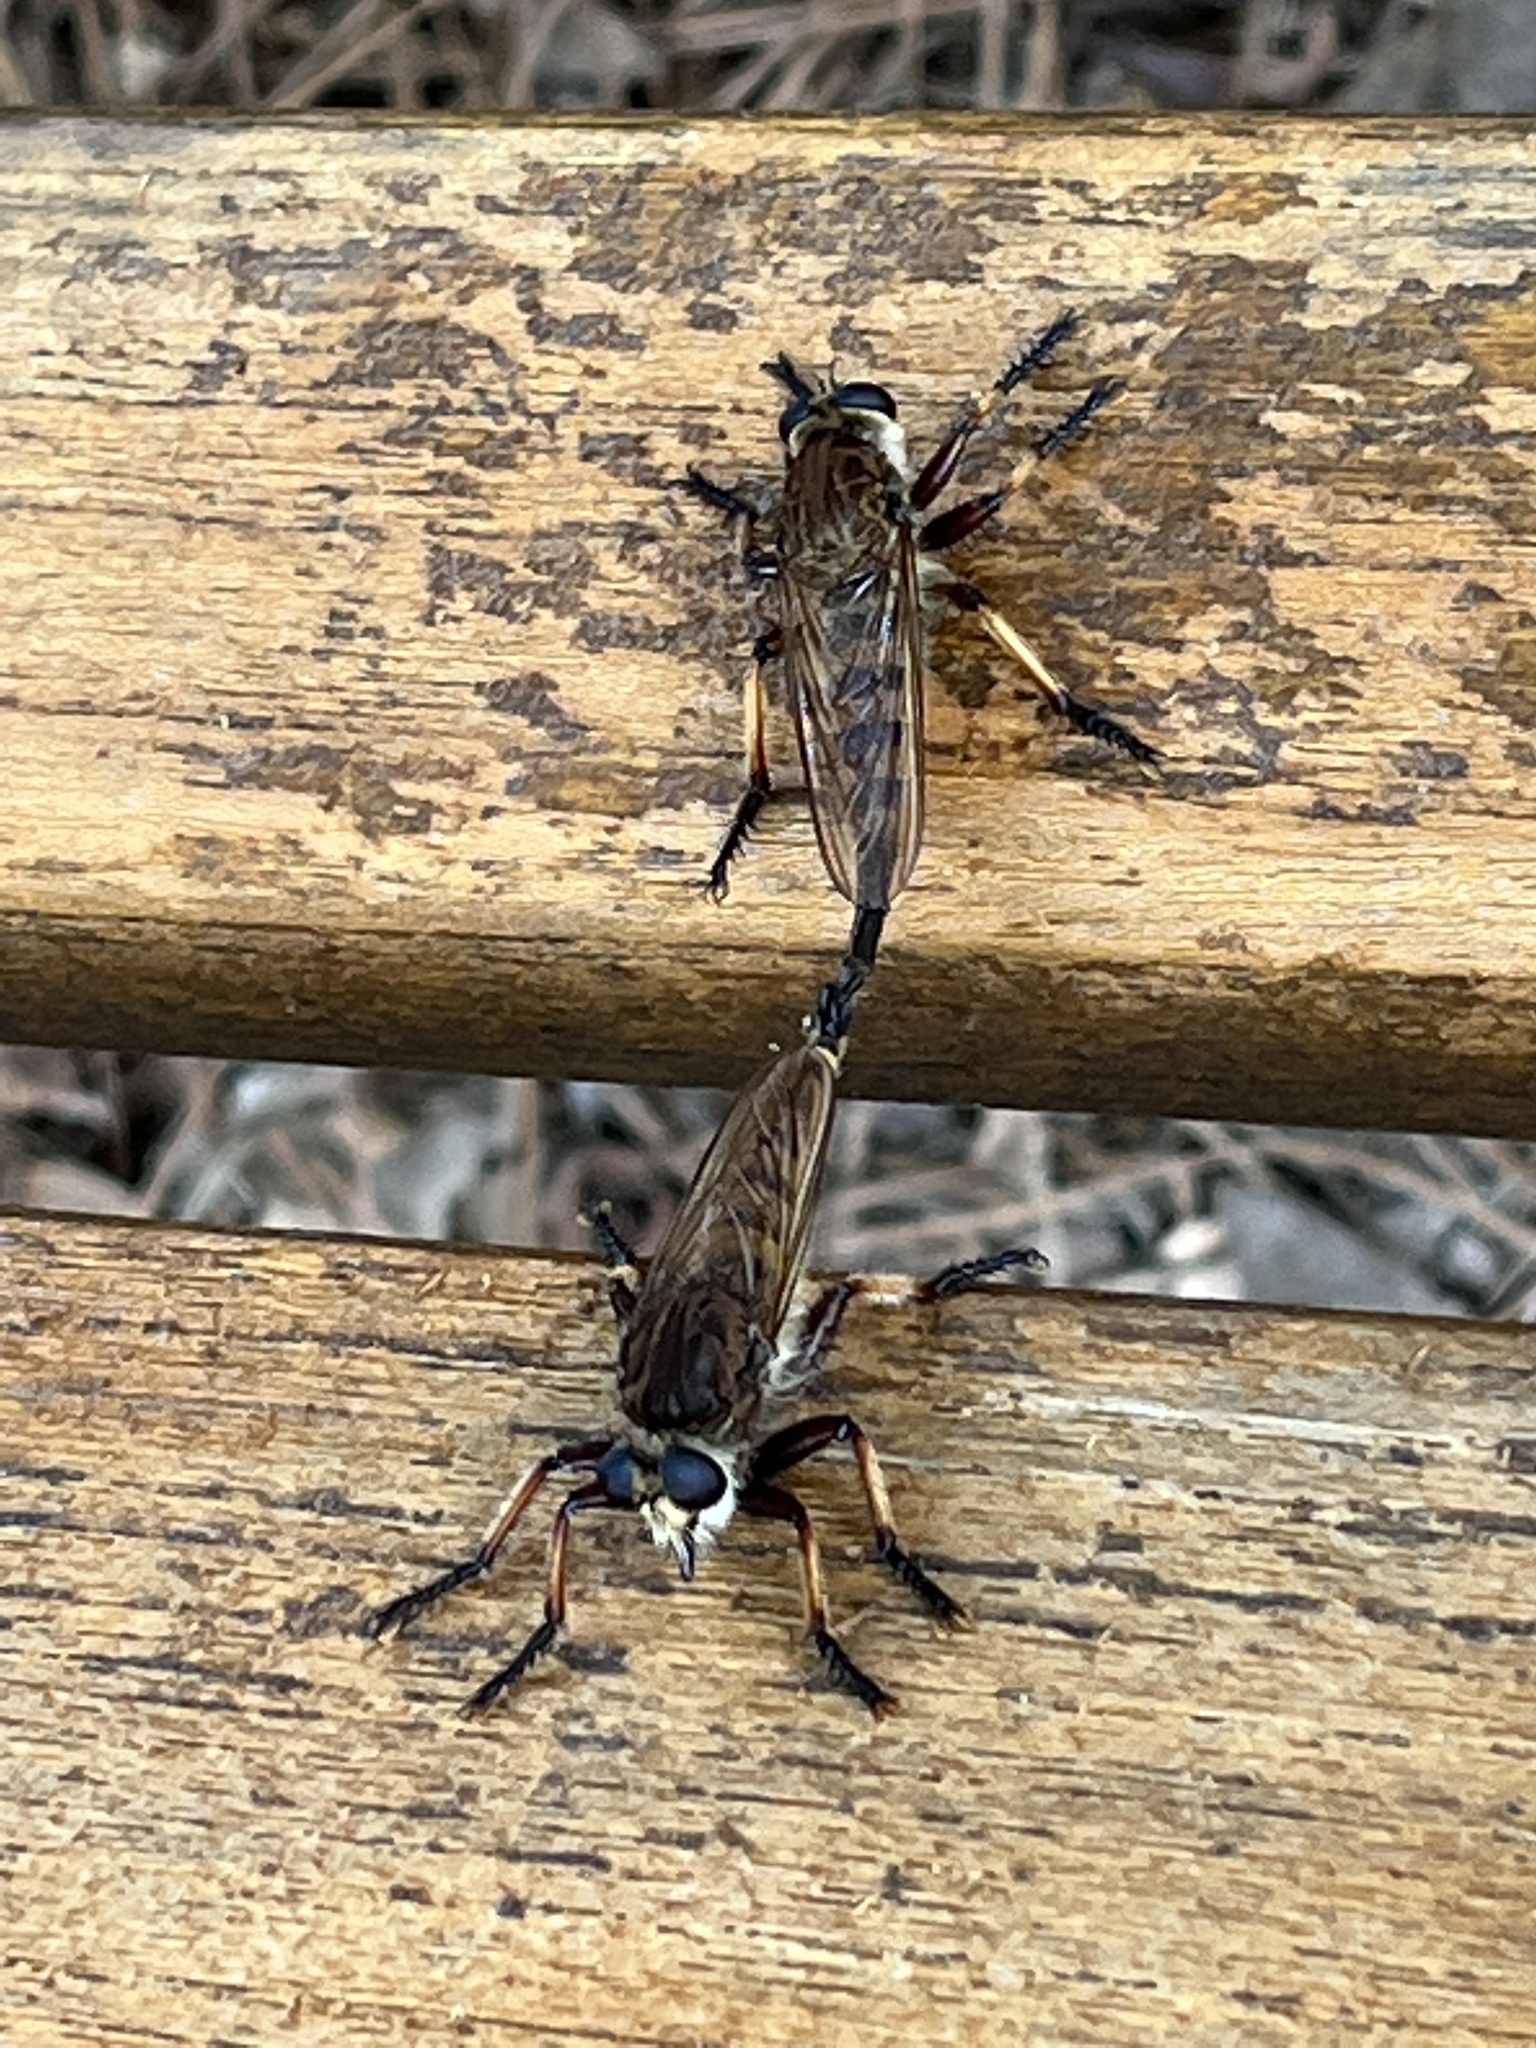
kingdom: Animalia
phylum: Arthropoda
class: Insecta
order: Diptera
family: Asilidae
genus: Promachus
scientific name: Promachus hinei
